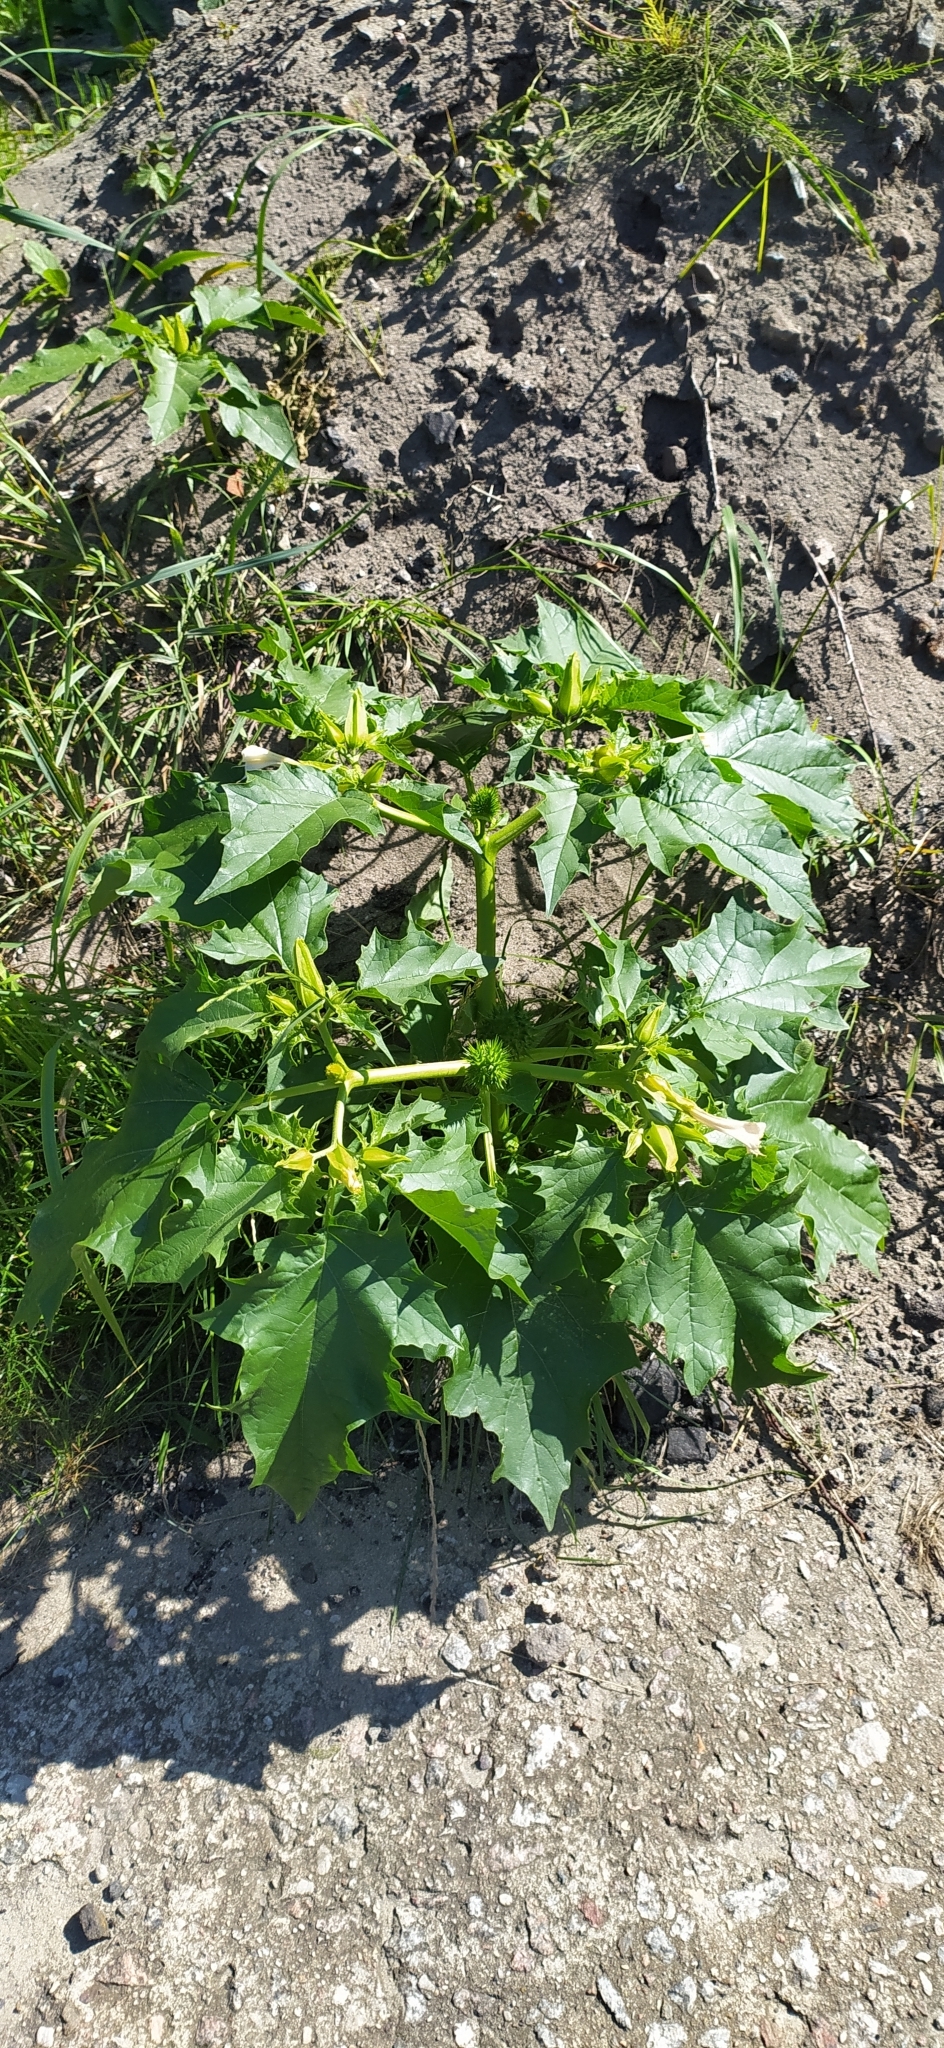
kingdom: Plantae
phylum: Tracheophyta
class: Magnoliopsida
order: Solanales
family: Solanaceae
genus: Datura
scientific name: Datura stramonium
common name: Thorn-apple
